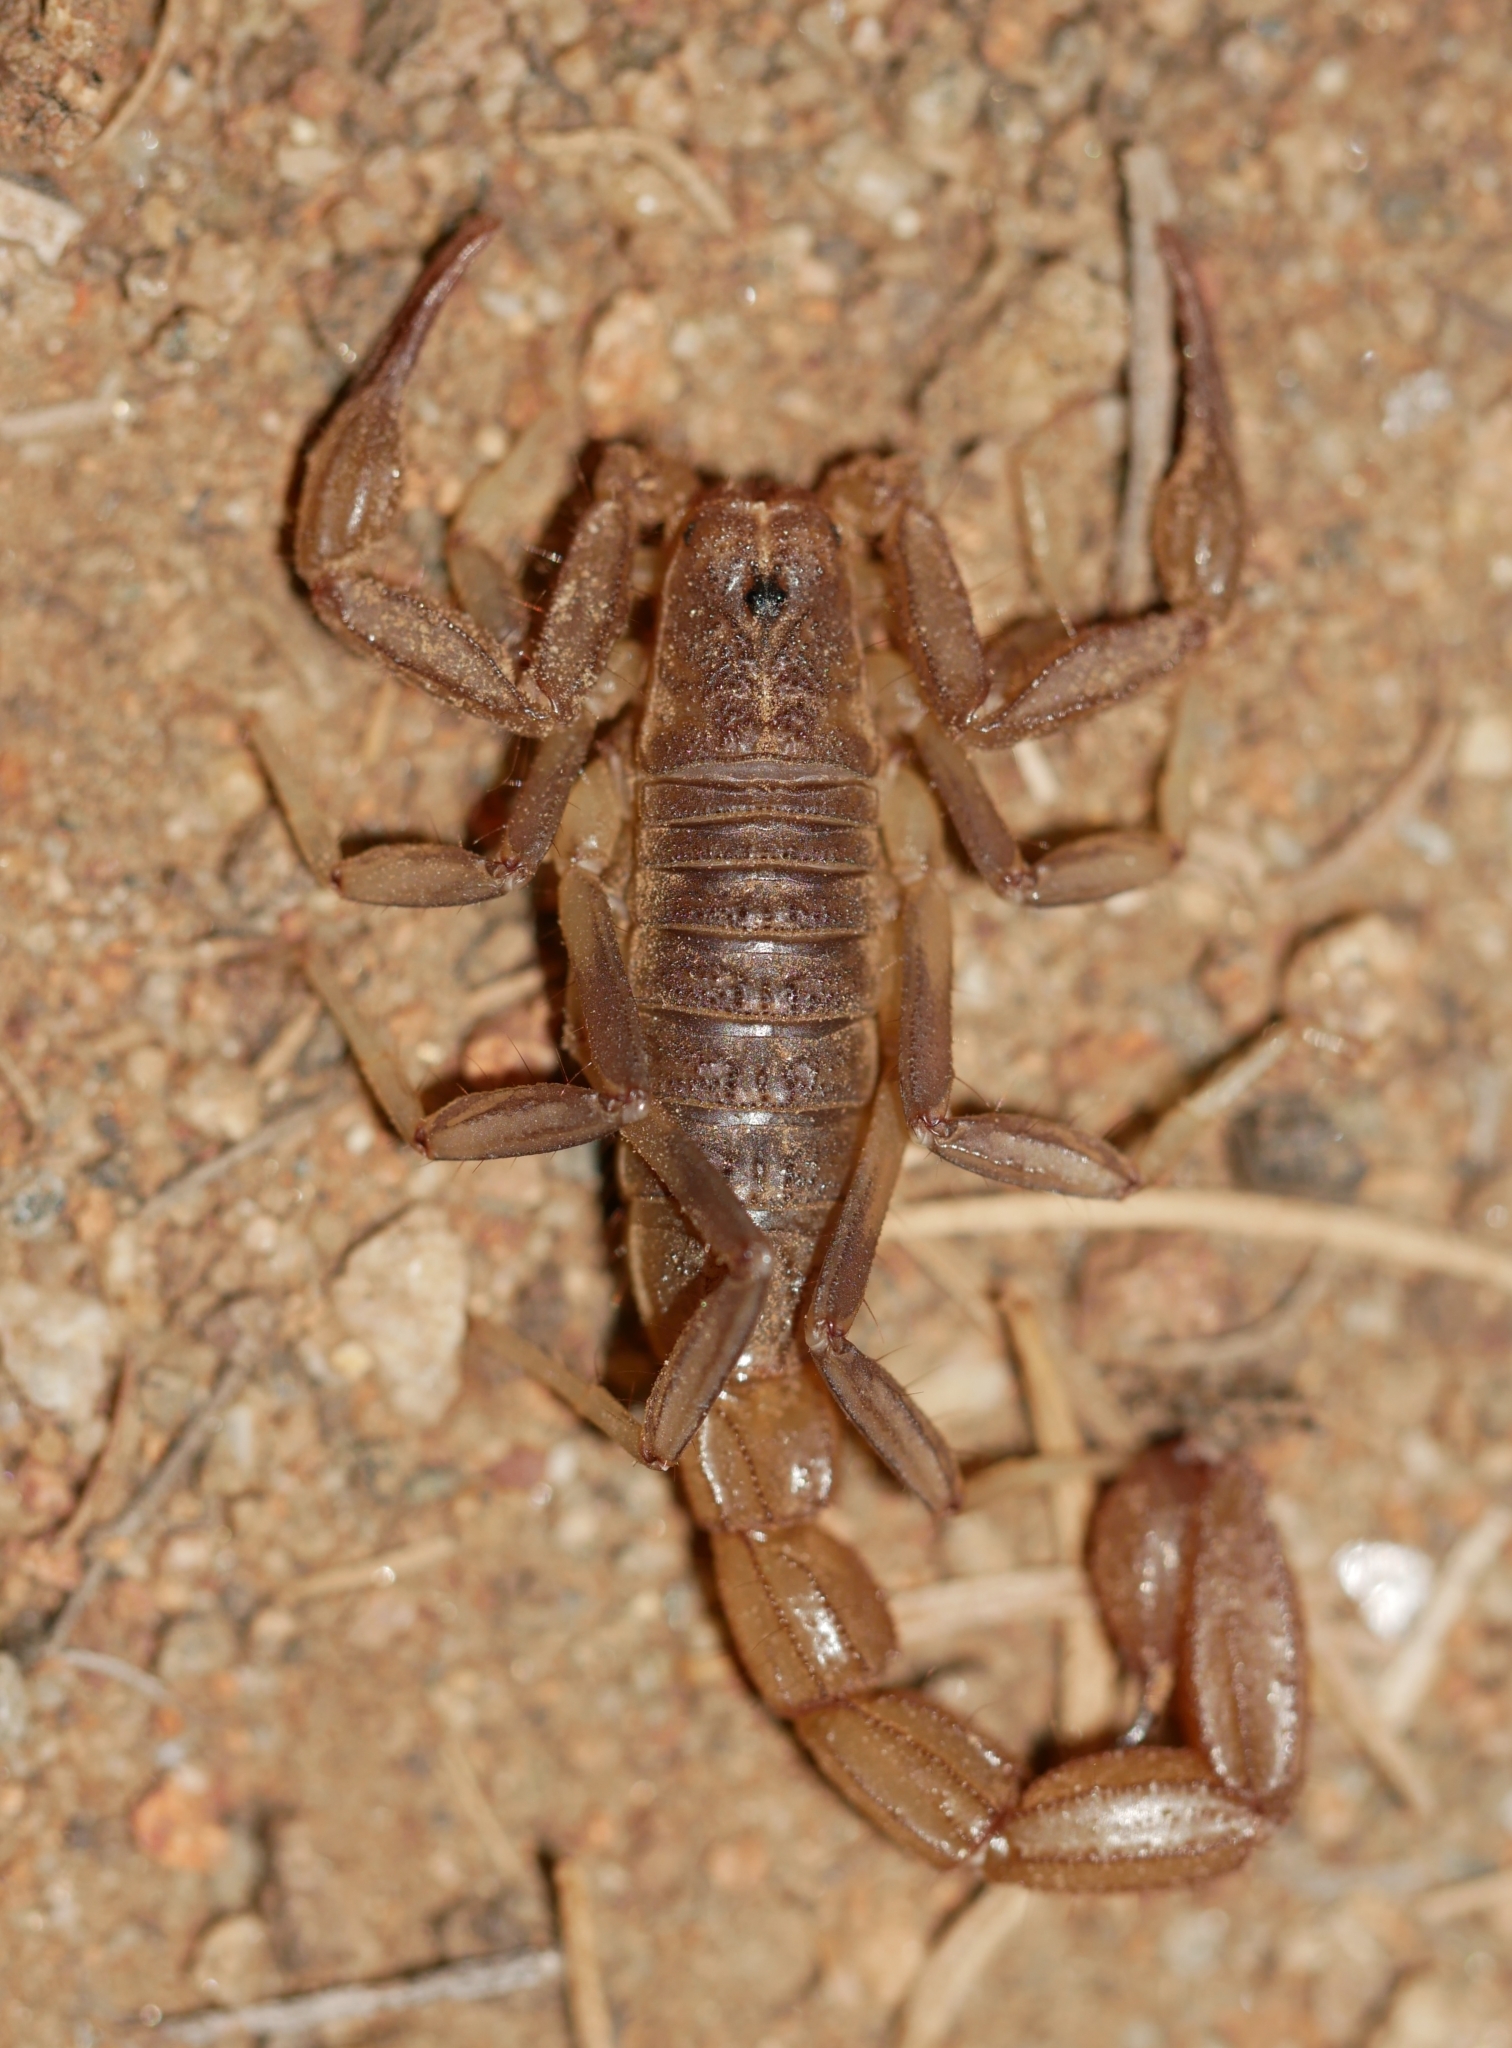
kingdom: Animalia
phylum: Arthropoda
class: Arachnida
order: Scorpiones
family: Vaejovidae
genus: Paravaejovis
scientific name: Paravaejovis puritanus
